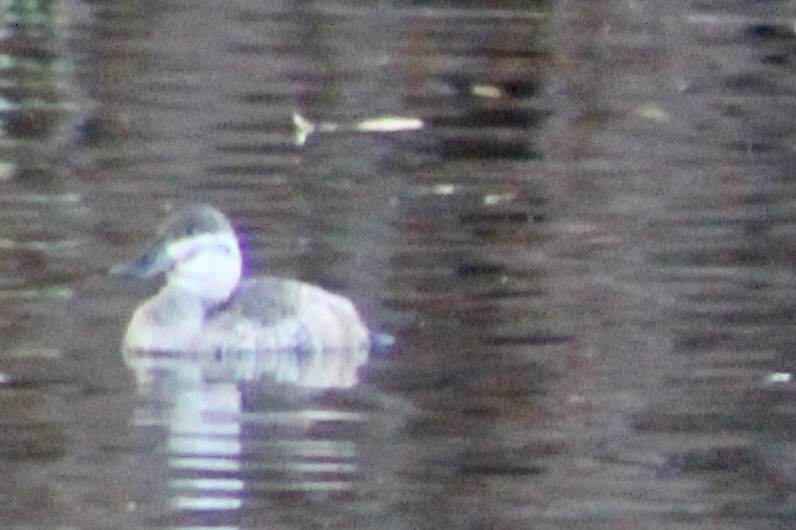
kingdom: Animalia
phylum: Chordata
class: Aves
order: Anseriformes
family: Anatidae
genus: Oxyura
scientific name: Oxyura jamaicensis
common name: Ruddy duck
